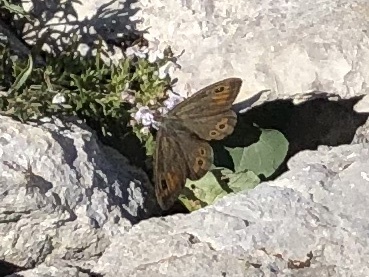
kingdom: Animalia
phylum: Arthropoda
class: Insecta
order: Lepidoptera
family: Nymphalidae
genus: Pararge
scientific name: Pararge Lasiommata maera
